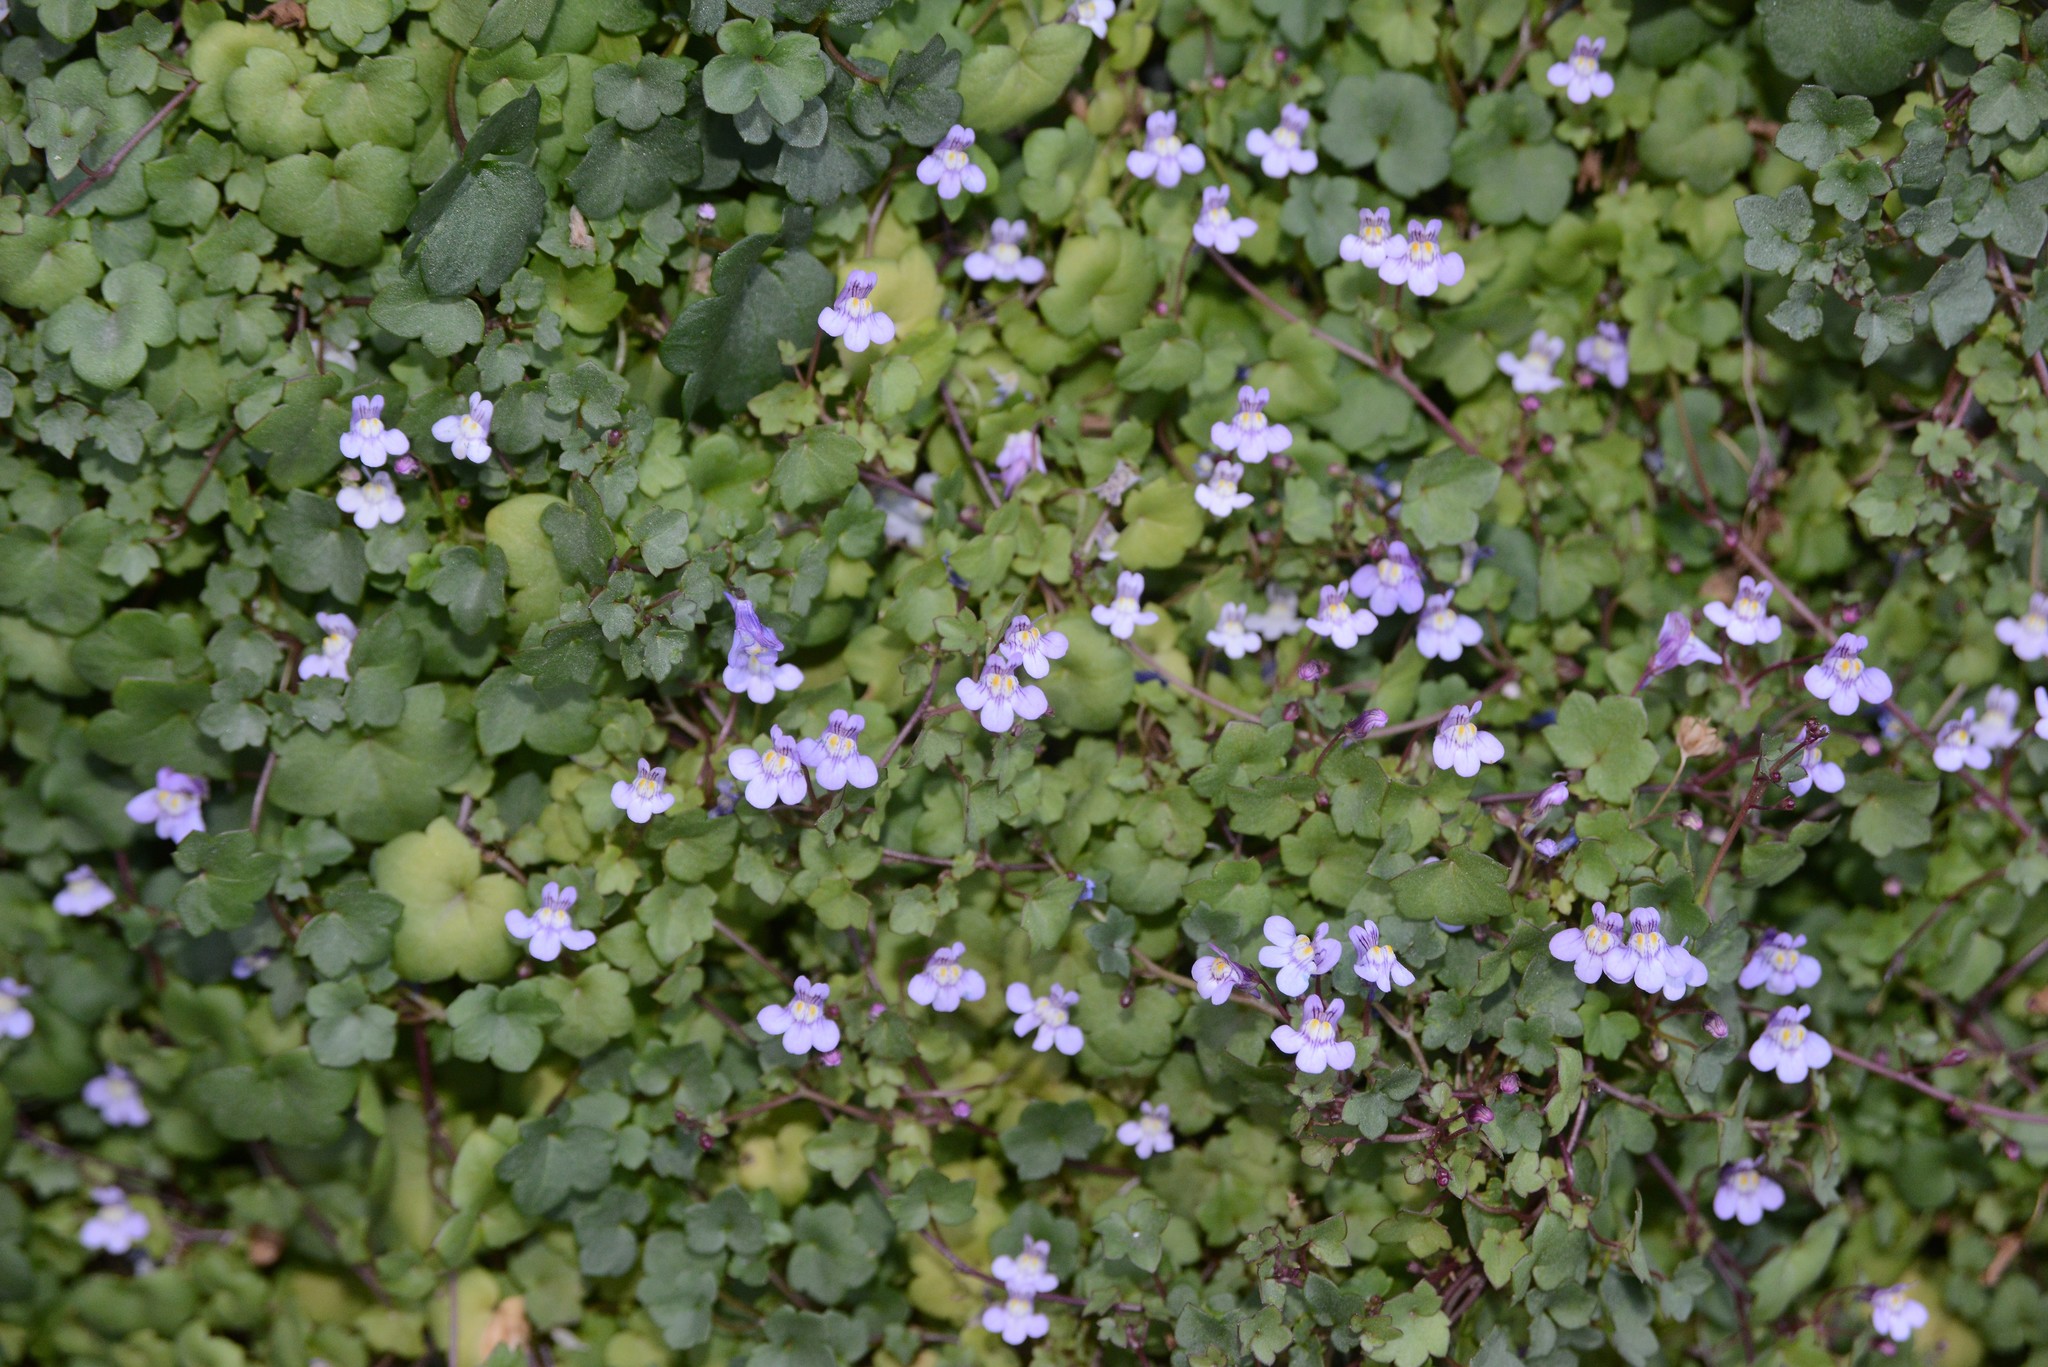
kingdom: Plantae
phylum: Tracheophyta
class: Magnoliopsida
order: Lamiales
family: Plantaginaceae
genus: Cymbalaria
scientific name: Cymbalaria muralis
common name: Ivy-leaved toadflax
